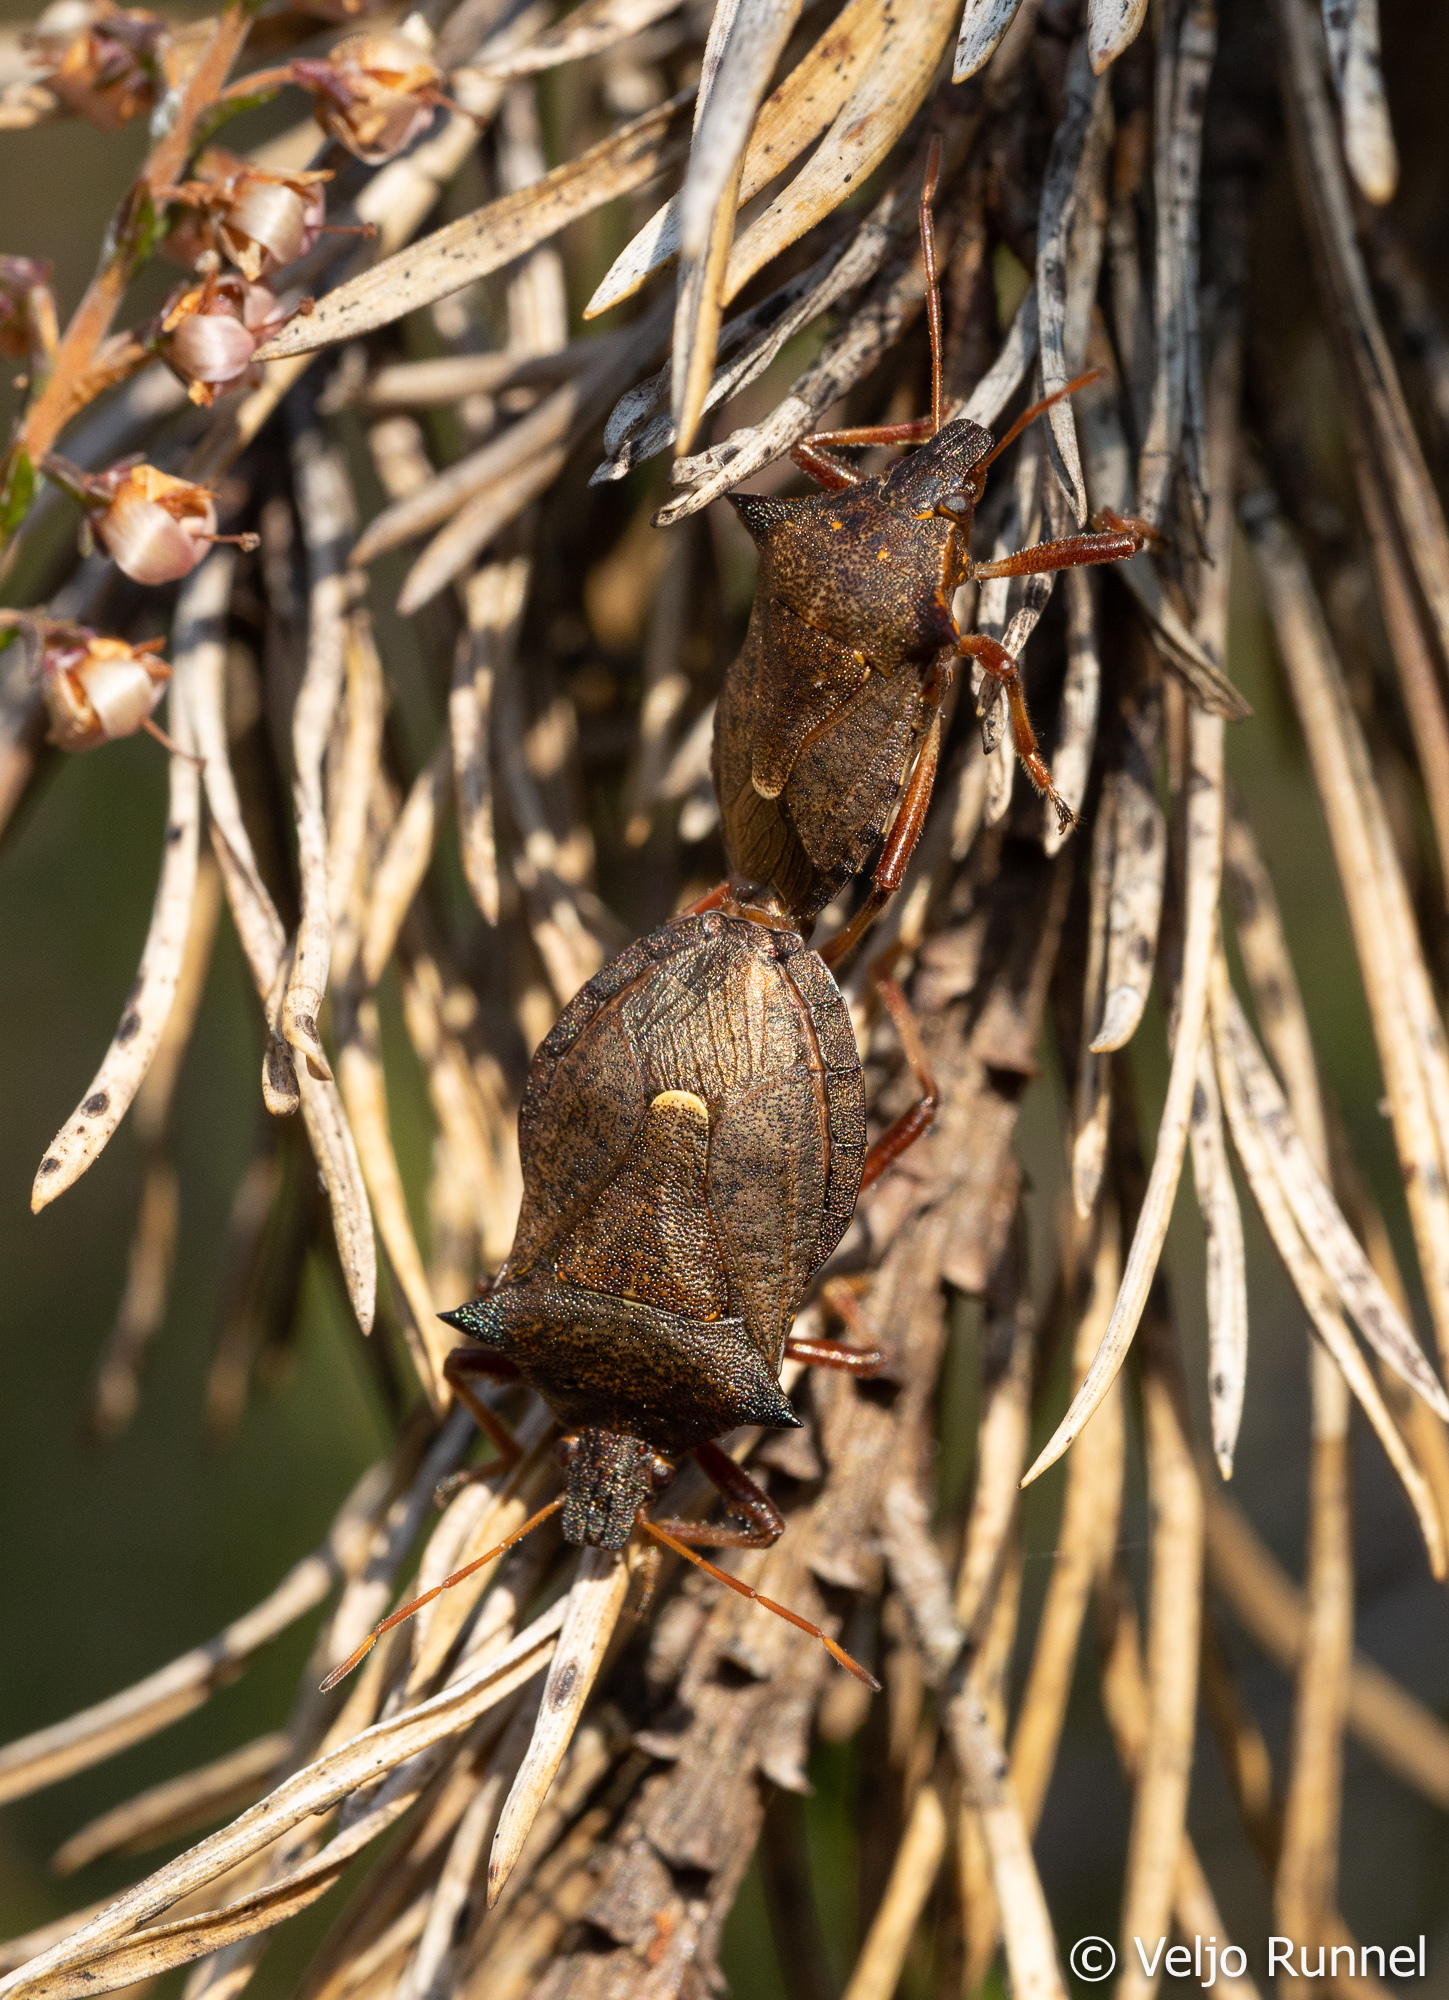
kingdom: Animalia
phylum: Arthropoda
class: Insecta
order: Hemiptera
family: Pentatomidae
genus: Picromerus
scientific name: Picromerus bidens
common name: Spiked shieldbug
